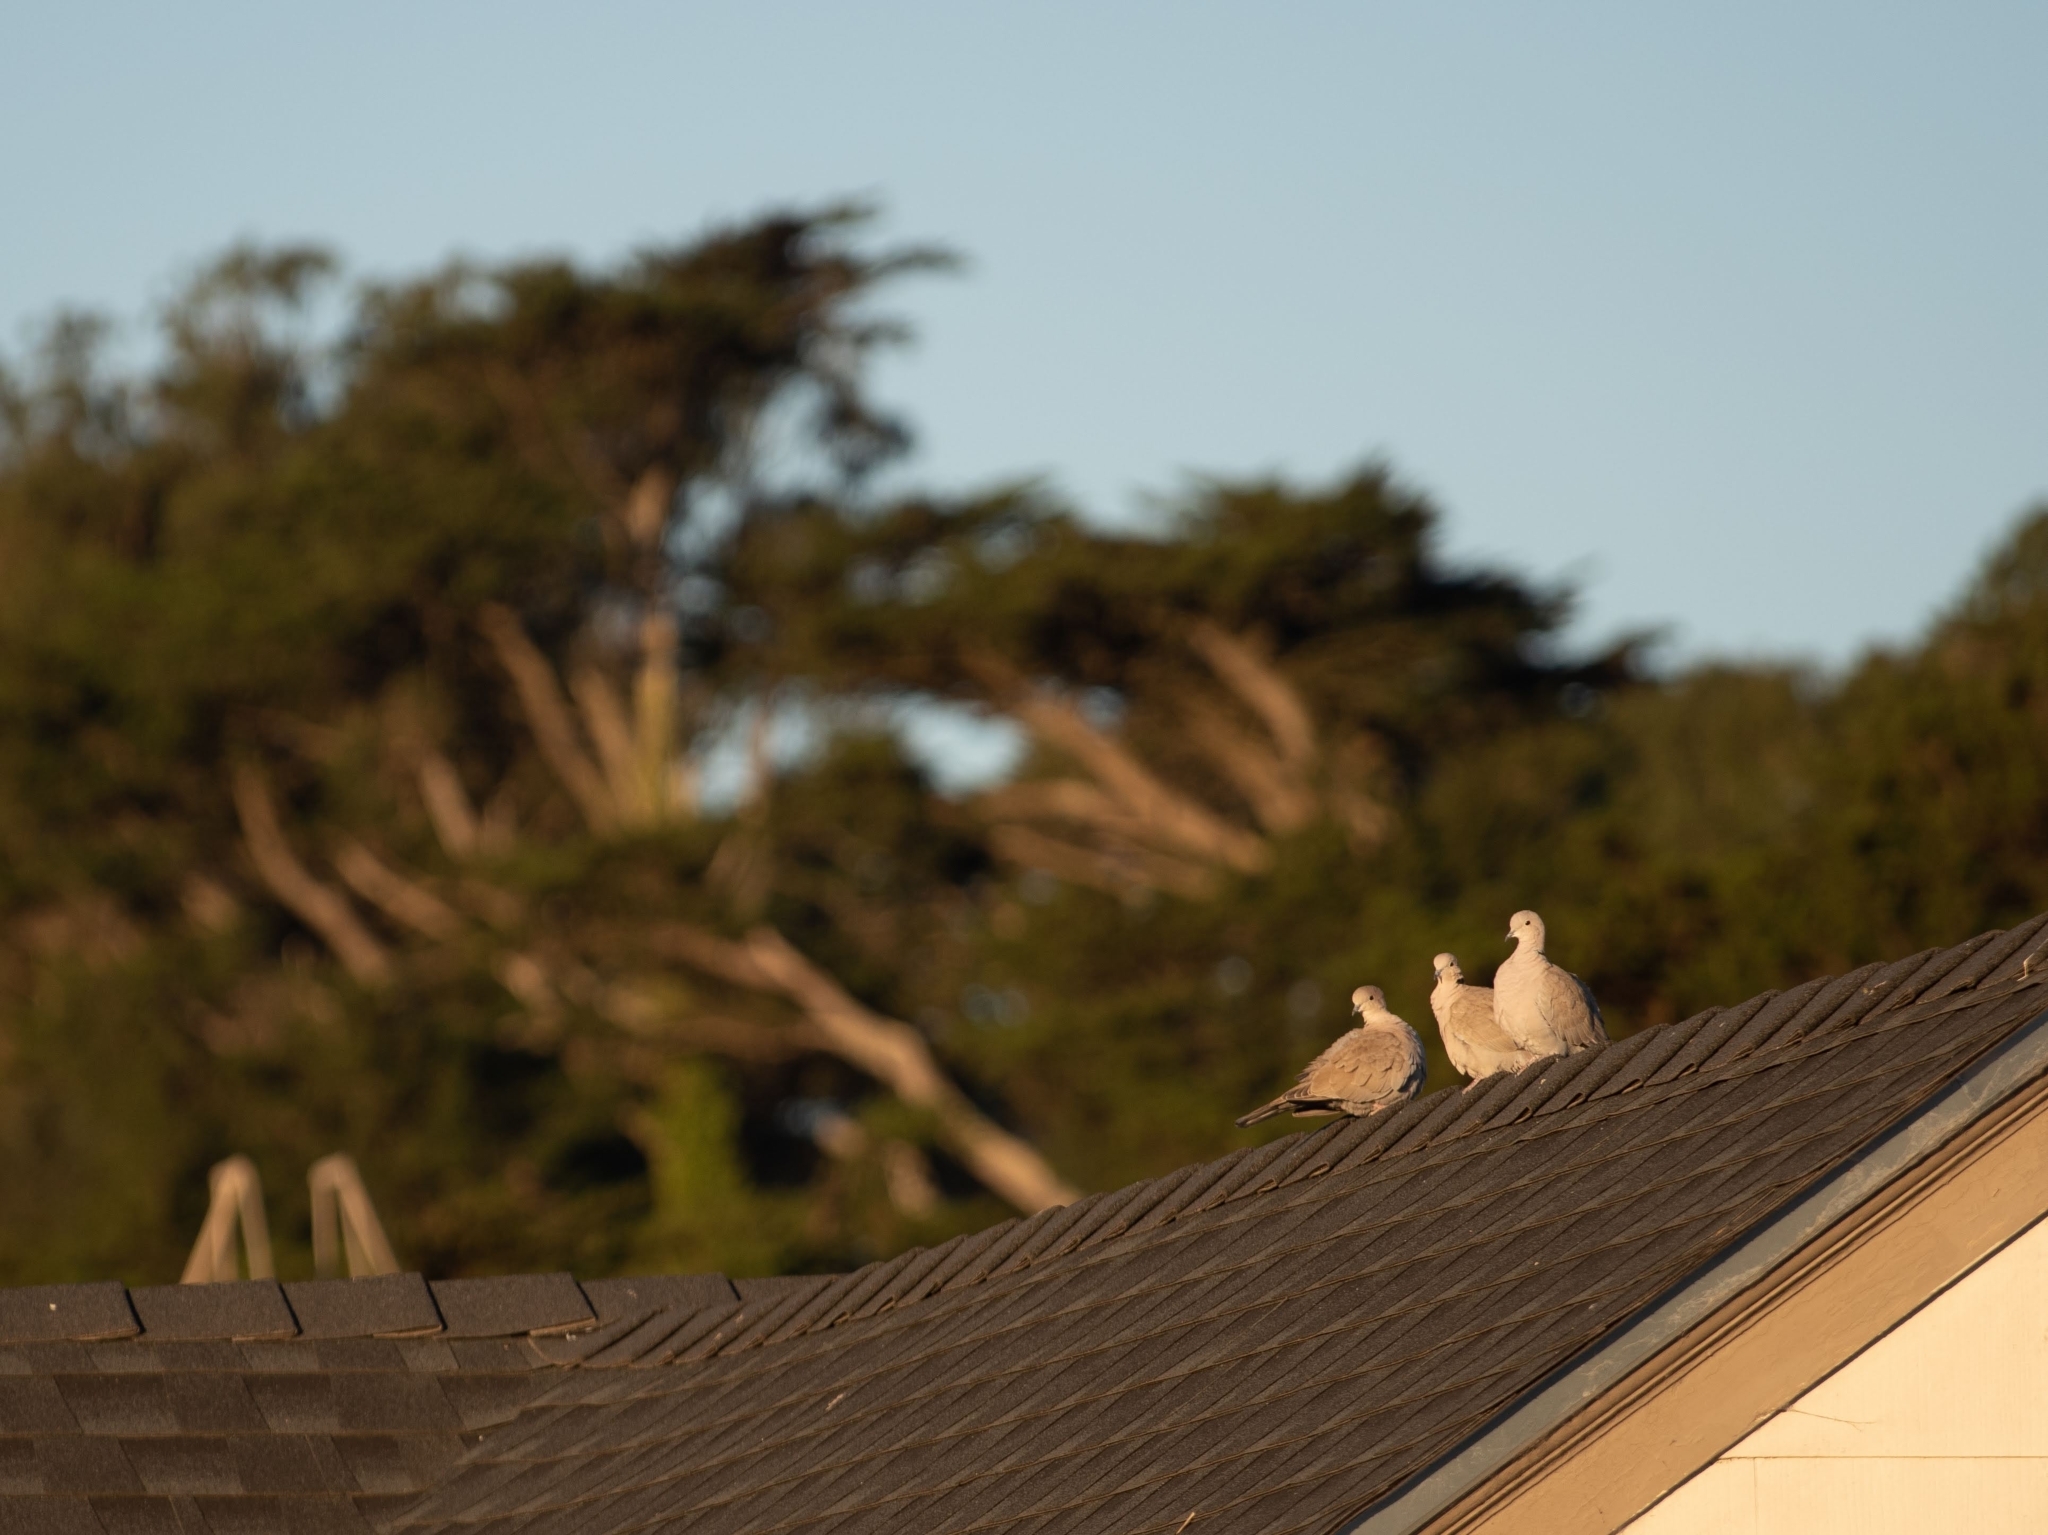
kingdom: Animalia
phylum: Chordata
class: Aves
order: Columbiformes
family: Columbidae
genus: Streptopelia
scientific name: Streptopelia decaocto
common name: Eurasian collared dove
